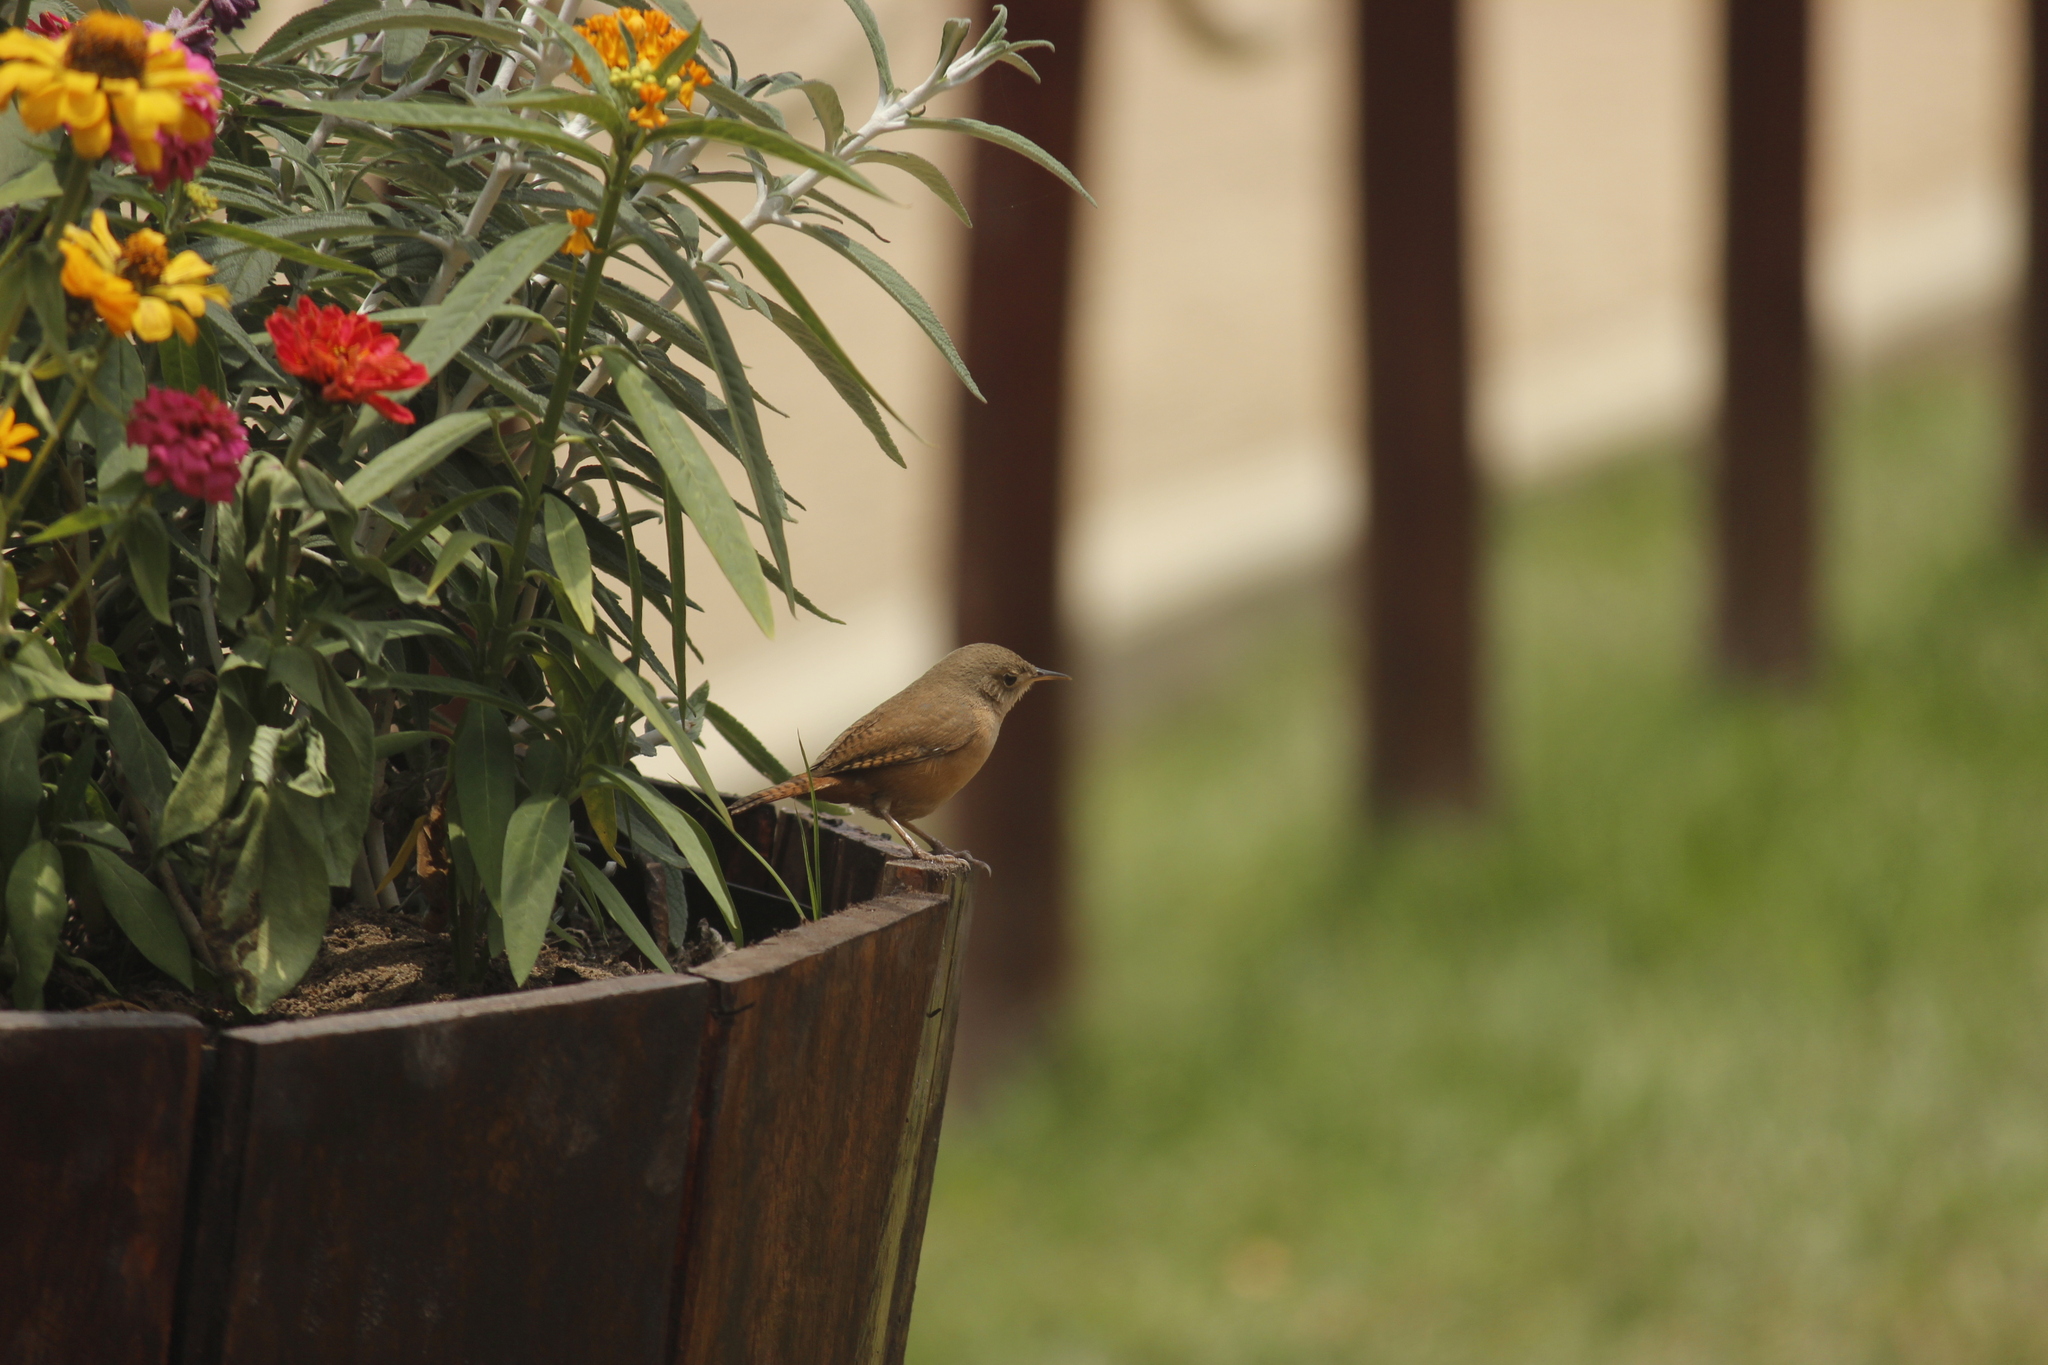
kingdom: Animalia
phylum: Chordata
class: Aves
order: Passeriformes
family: Troglodytidae
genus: Troglodytes
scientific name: Troglodytes aedon
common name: House wren
